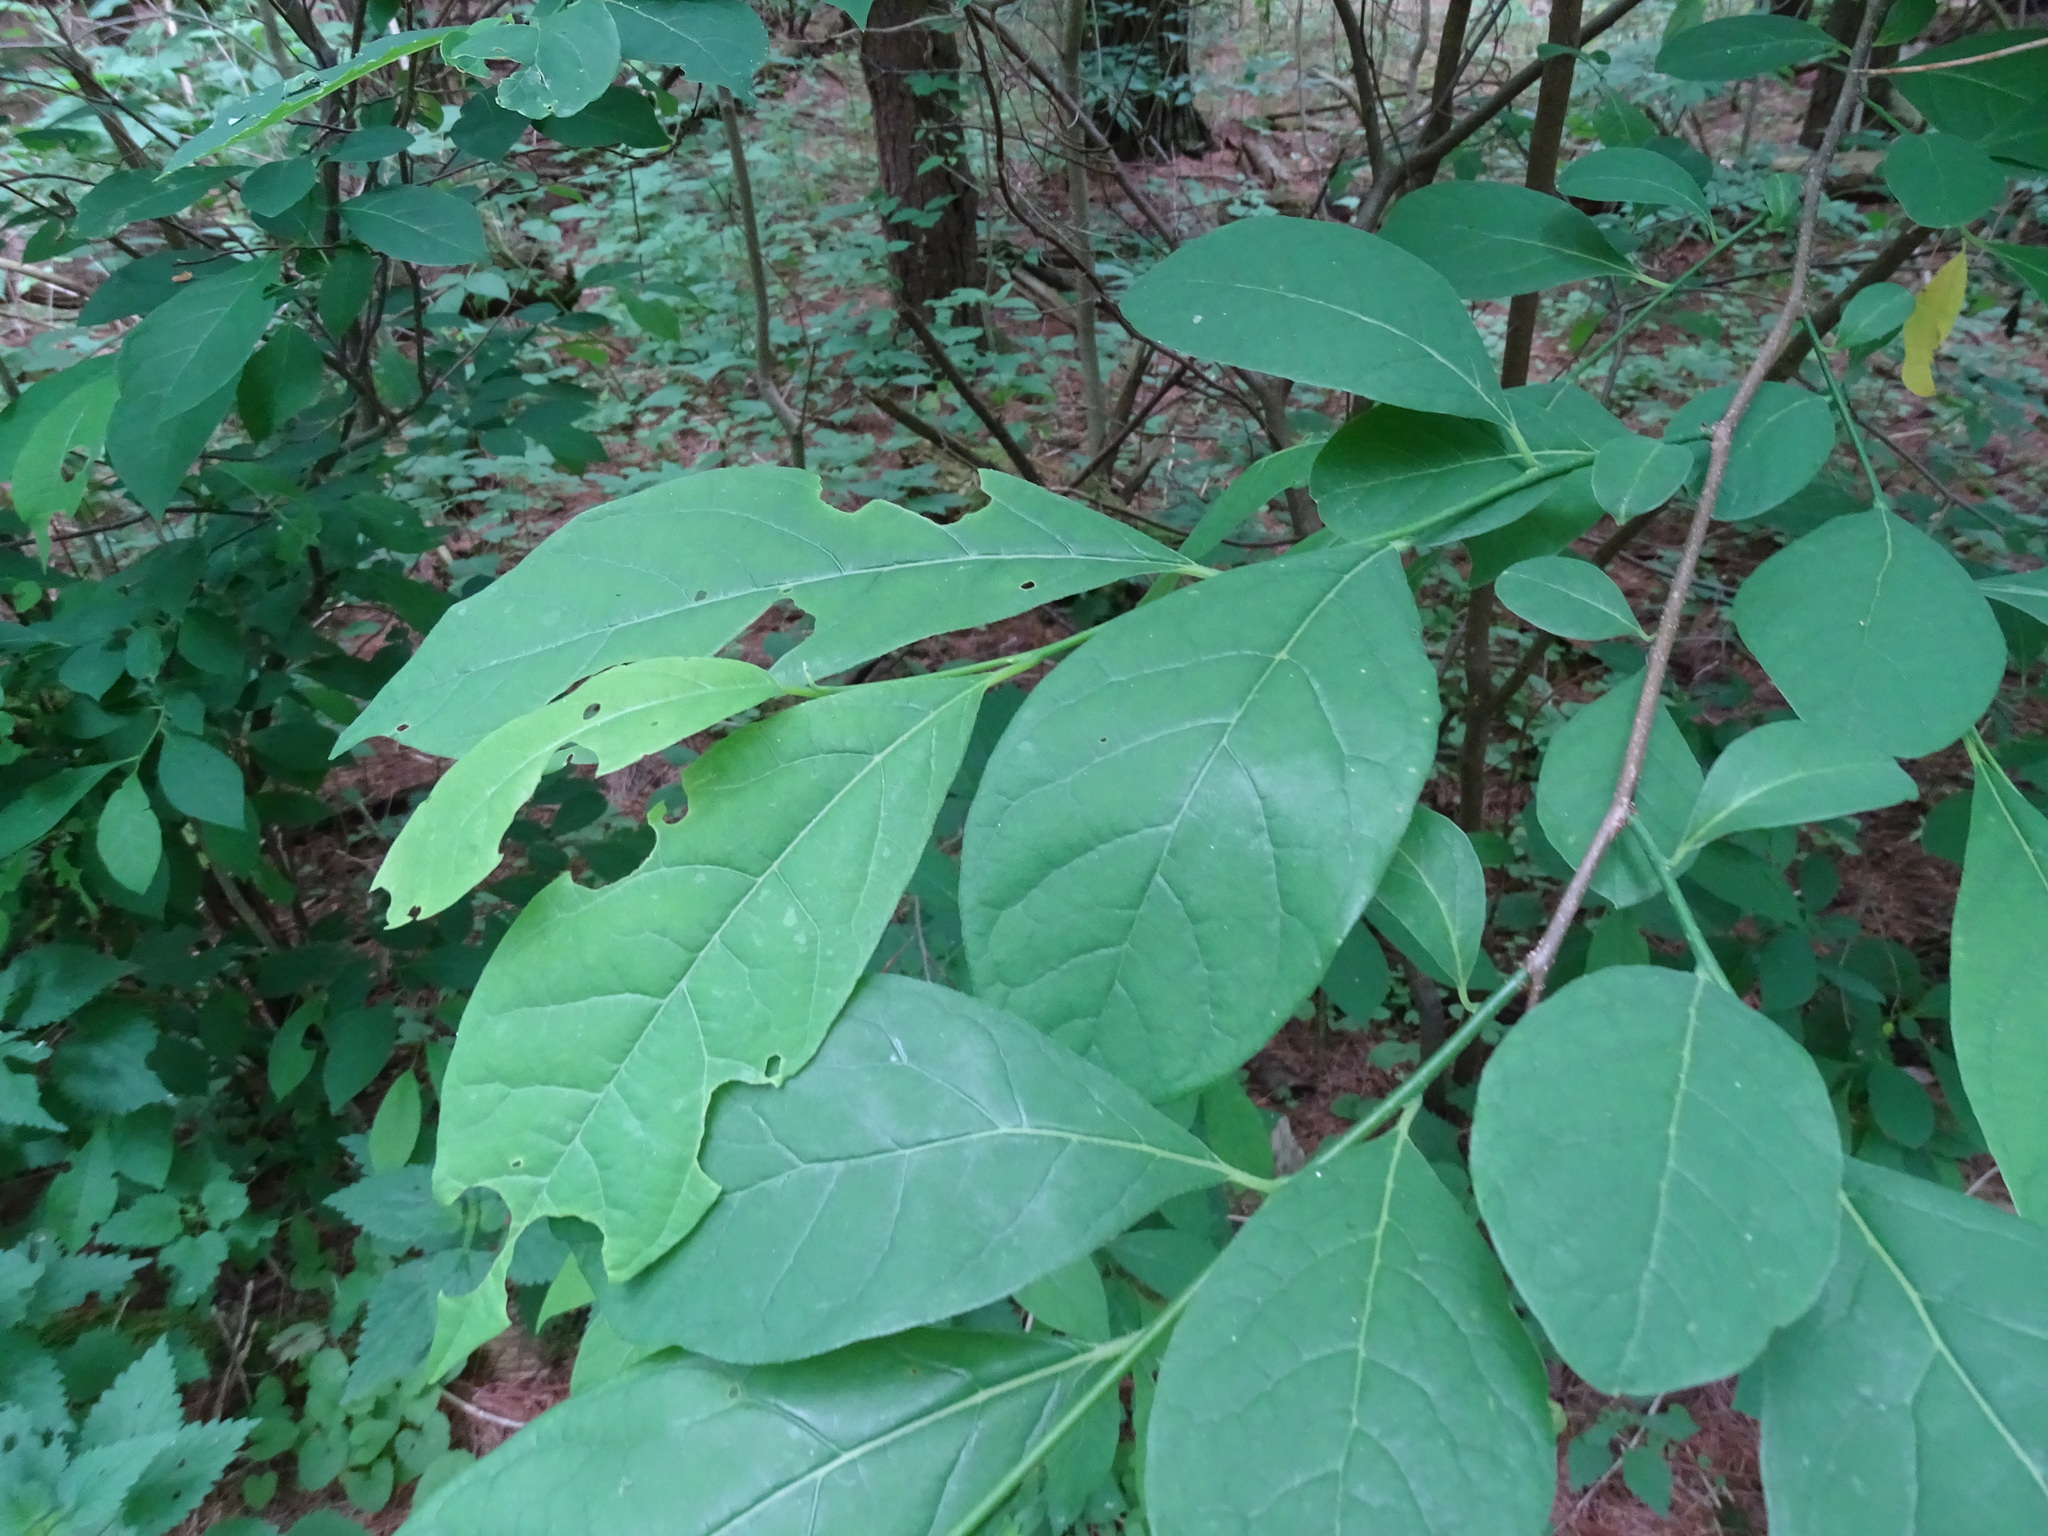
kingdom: Plantae
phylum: Tracheophyta
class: Magnoliopsida
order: Laurales
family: Lauraceae
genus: Lindera
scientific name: Lindera benzoin
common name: Spicebush
